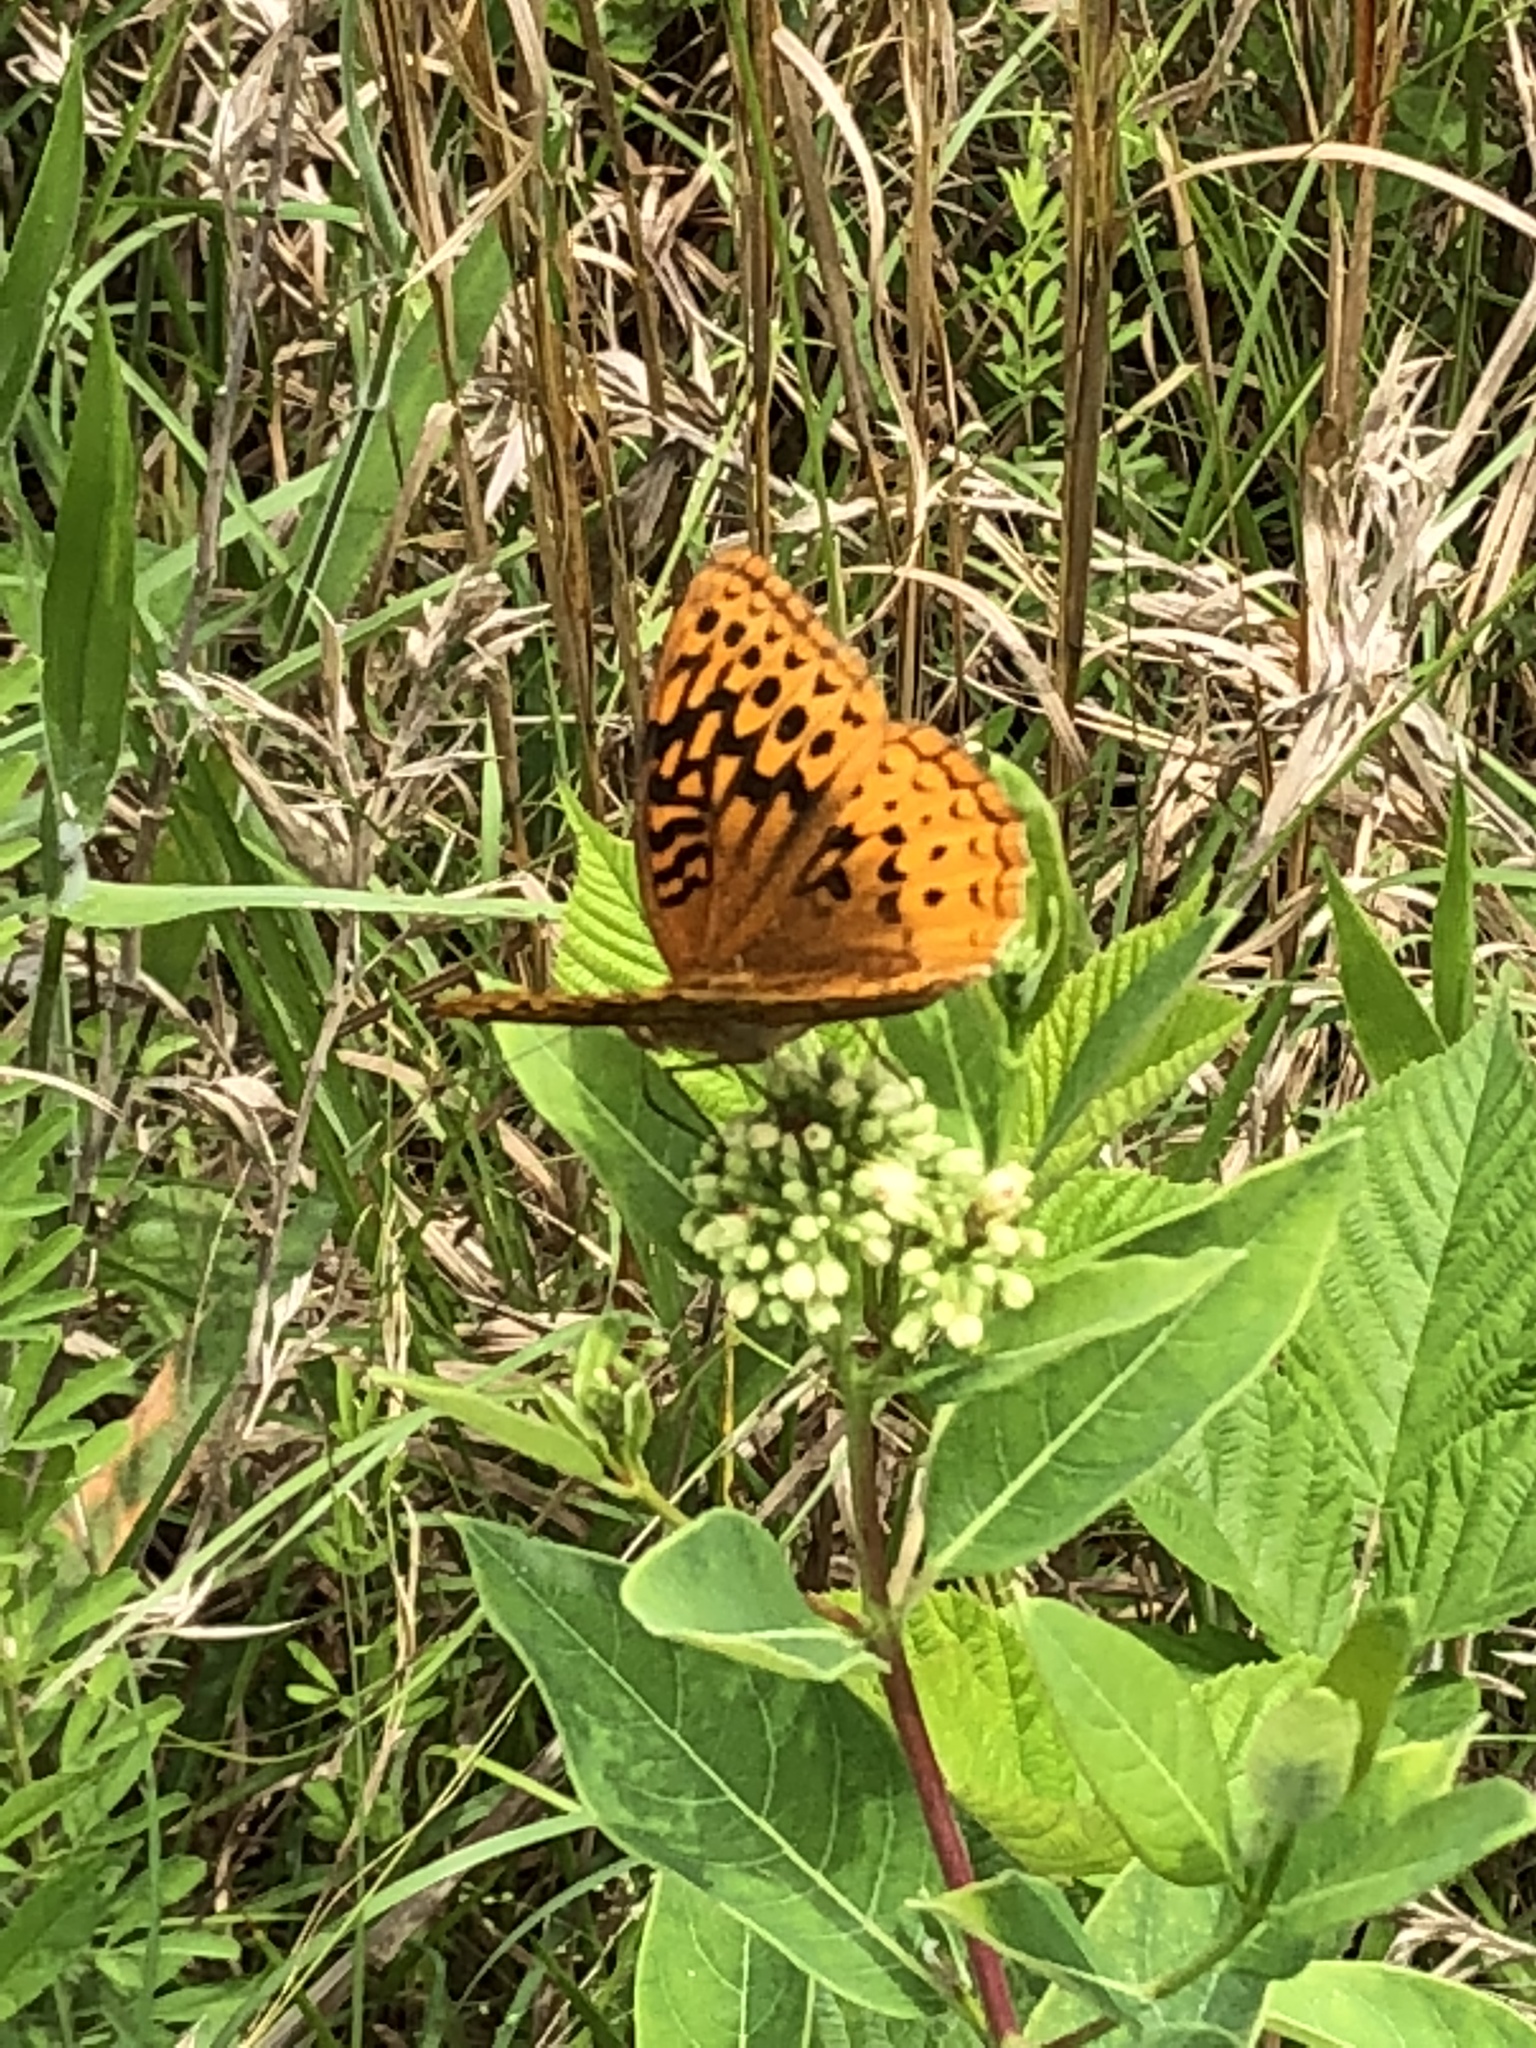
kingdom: Animalia
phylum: Arthropoda
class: Insecta
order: Lepidoptera
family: Nymphalidae
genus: Speyeria
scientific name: Speyeria cybele
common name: Great spangled fritillary
